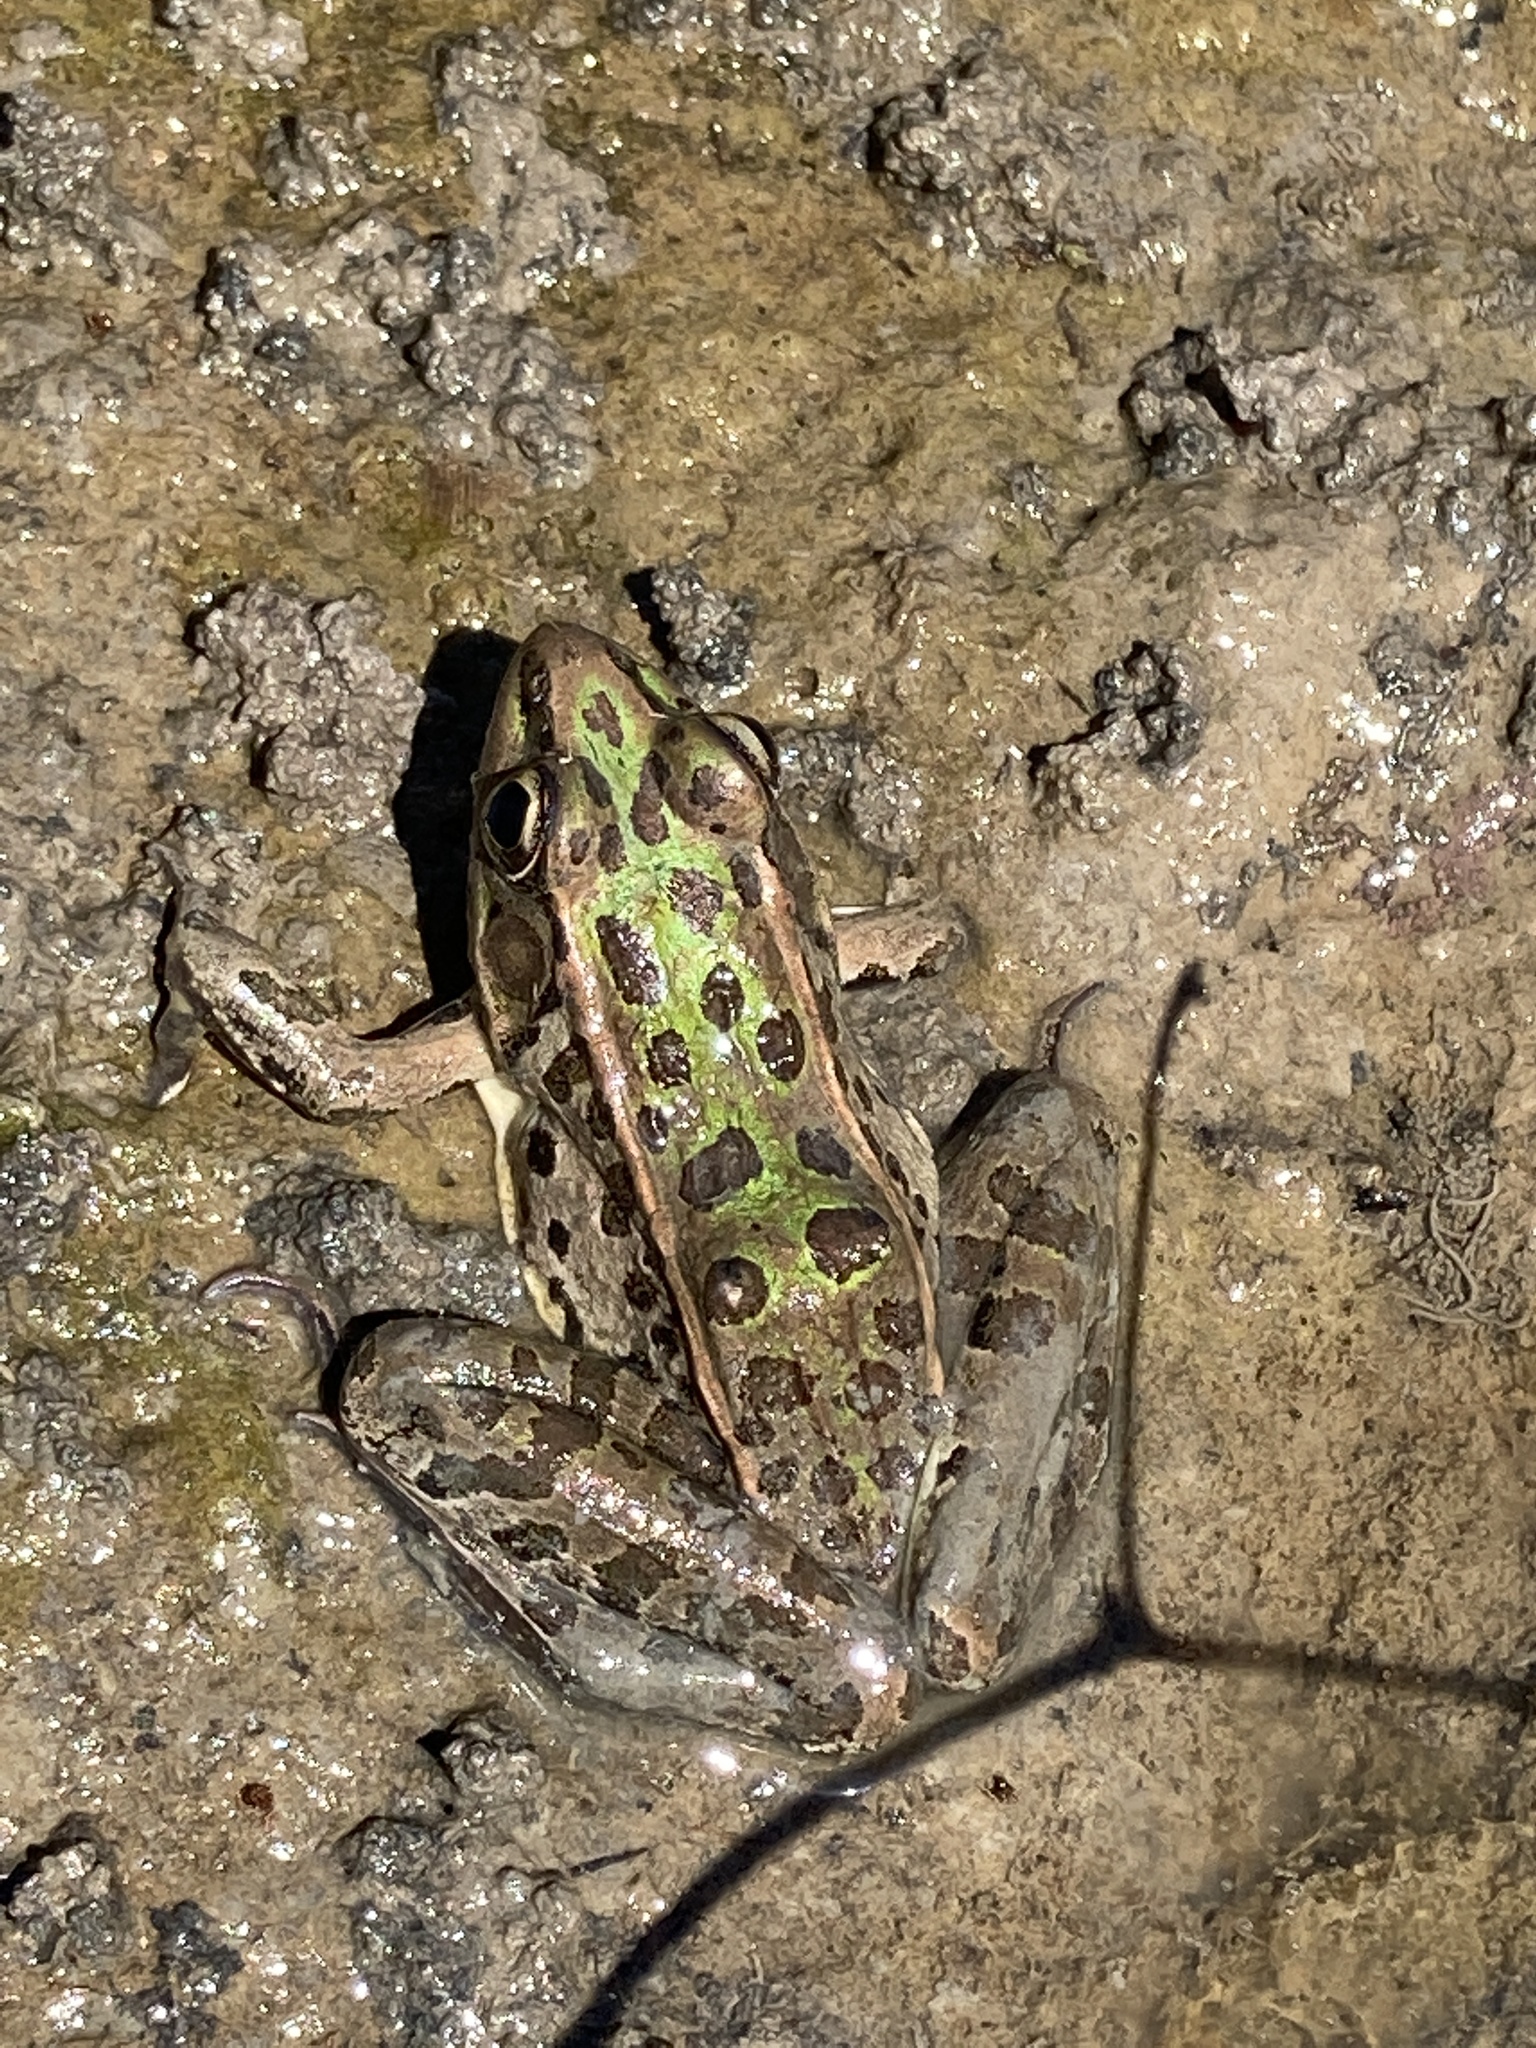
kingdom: Animalia
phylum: Chordata
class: Amphibia
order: Anura
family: Ranidae
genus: Lithobates
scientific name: Lithobates sphenocephalus
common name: Southern leopard frog
